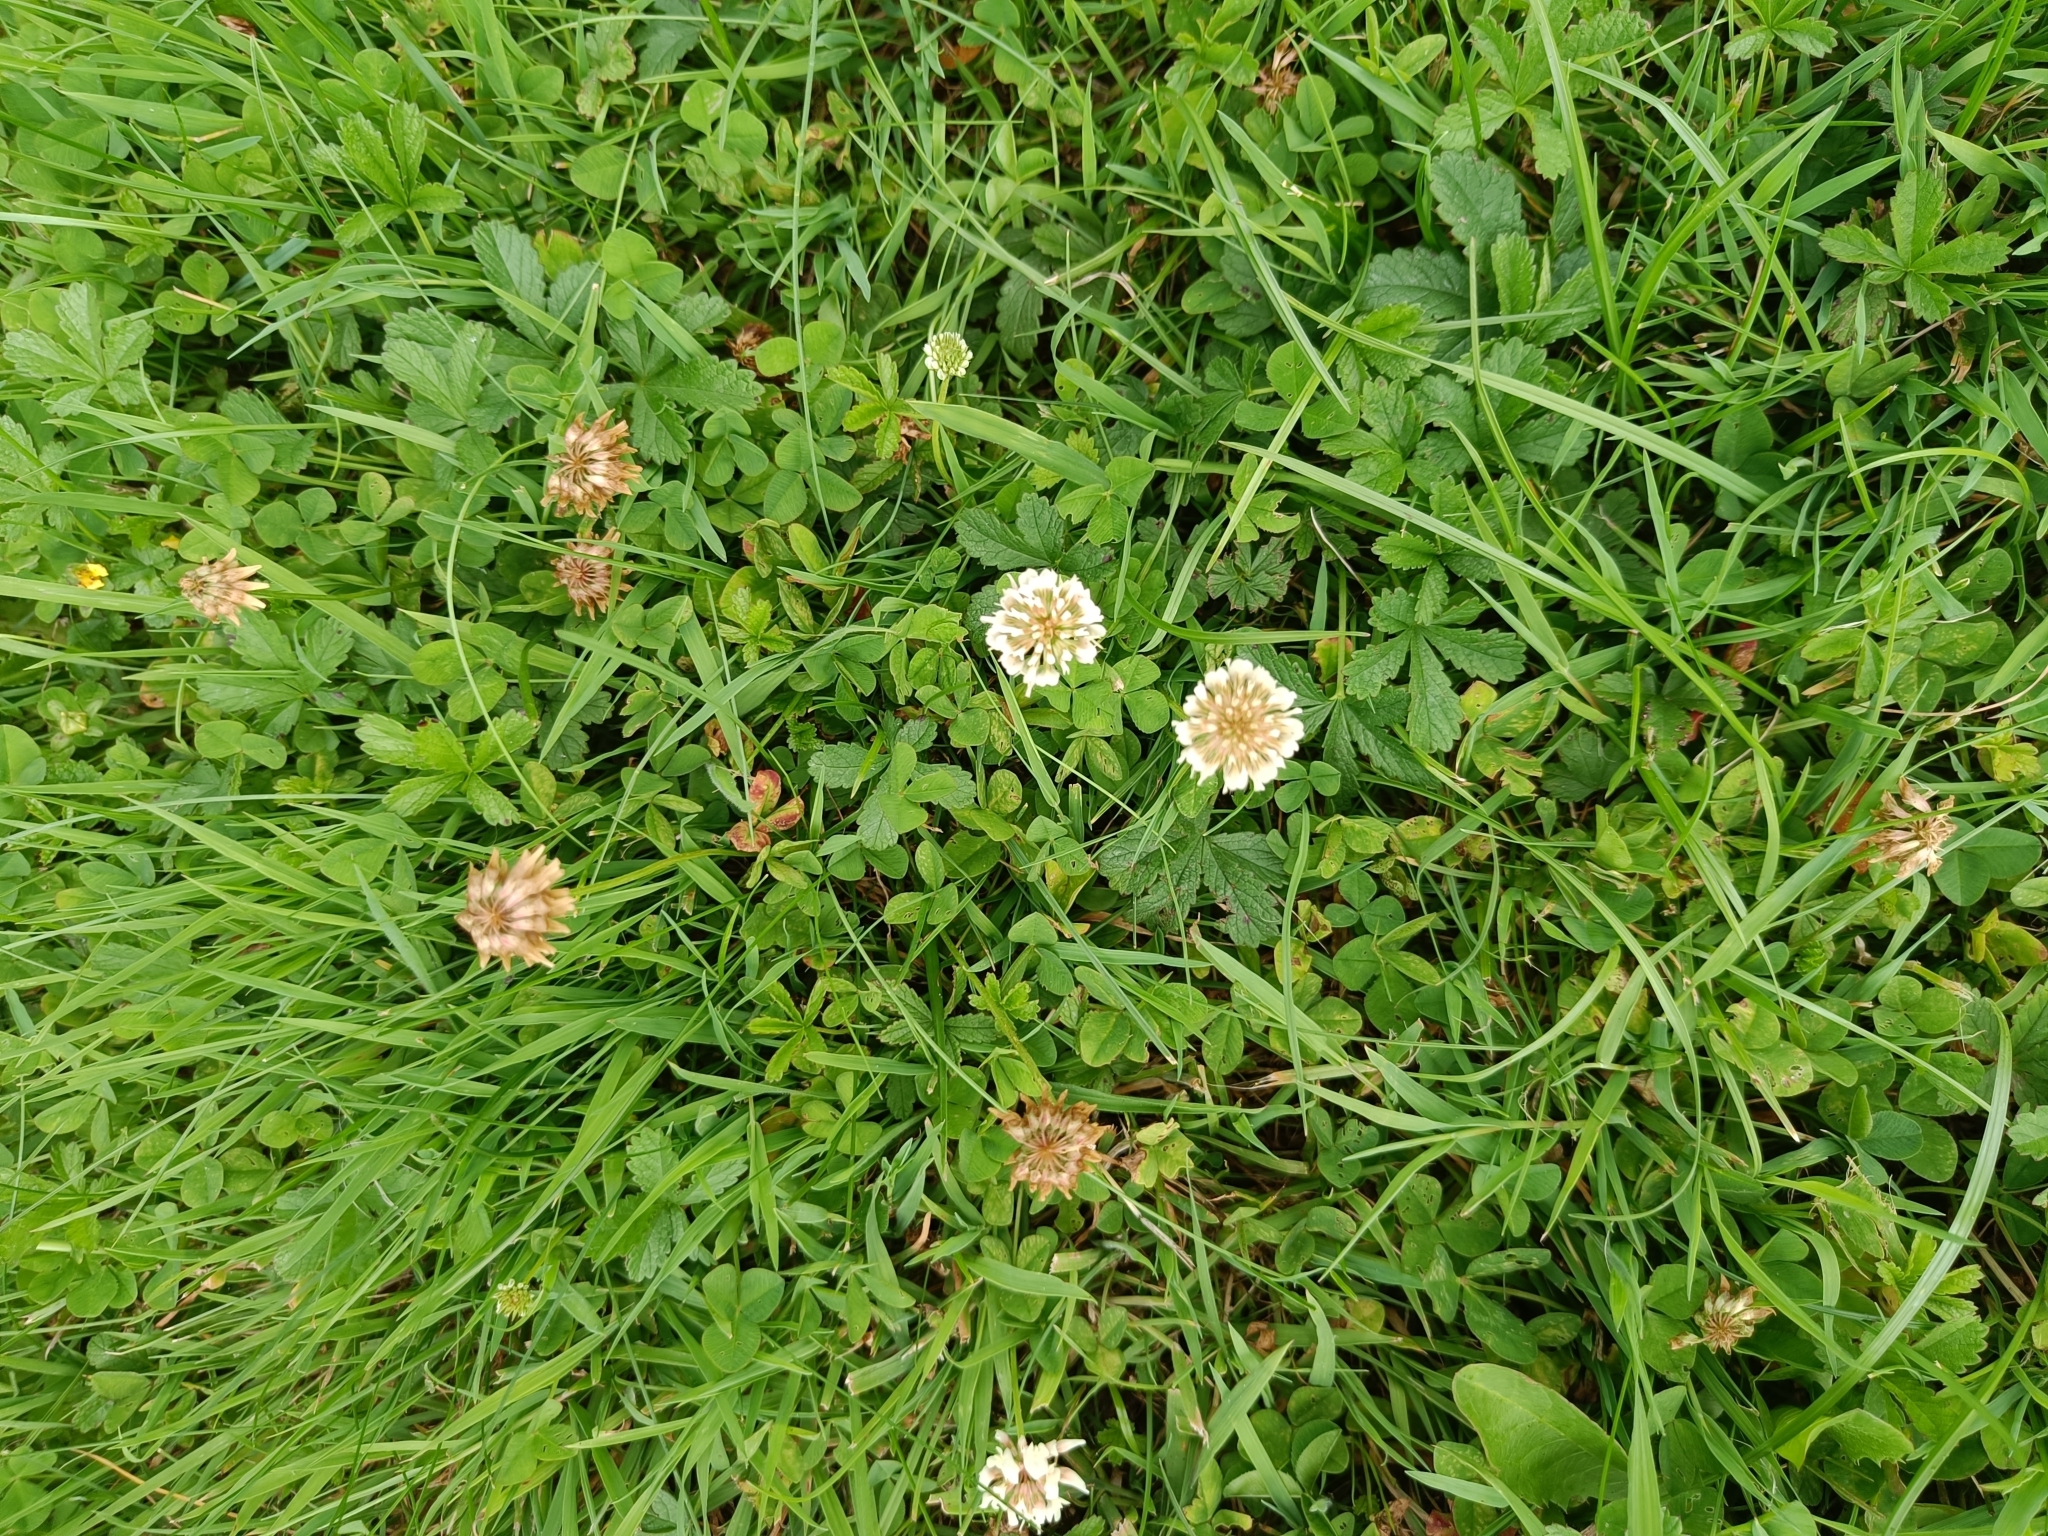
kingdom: Plantae
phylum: Tracheophyta
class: Magnoliopsida
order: Fabales
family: Fabaceae
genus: Trifolium
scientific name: Trifolium repens
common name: White clover
